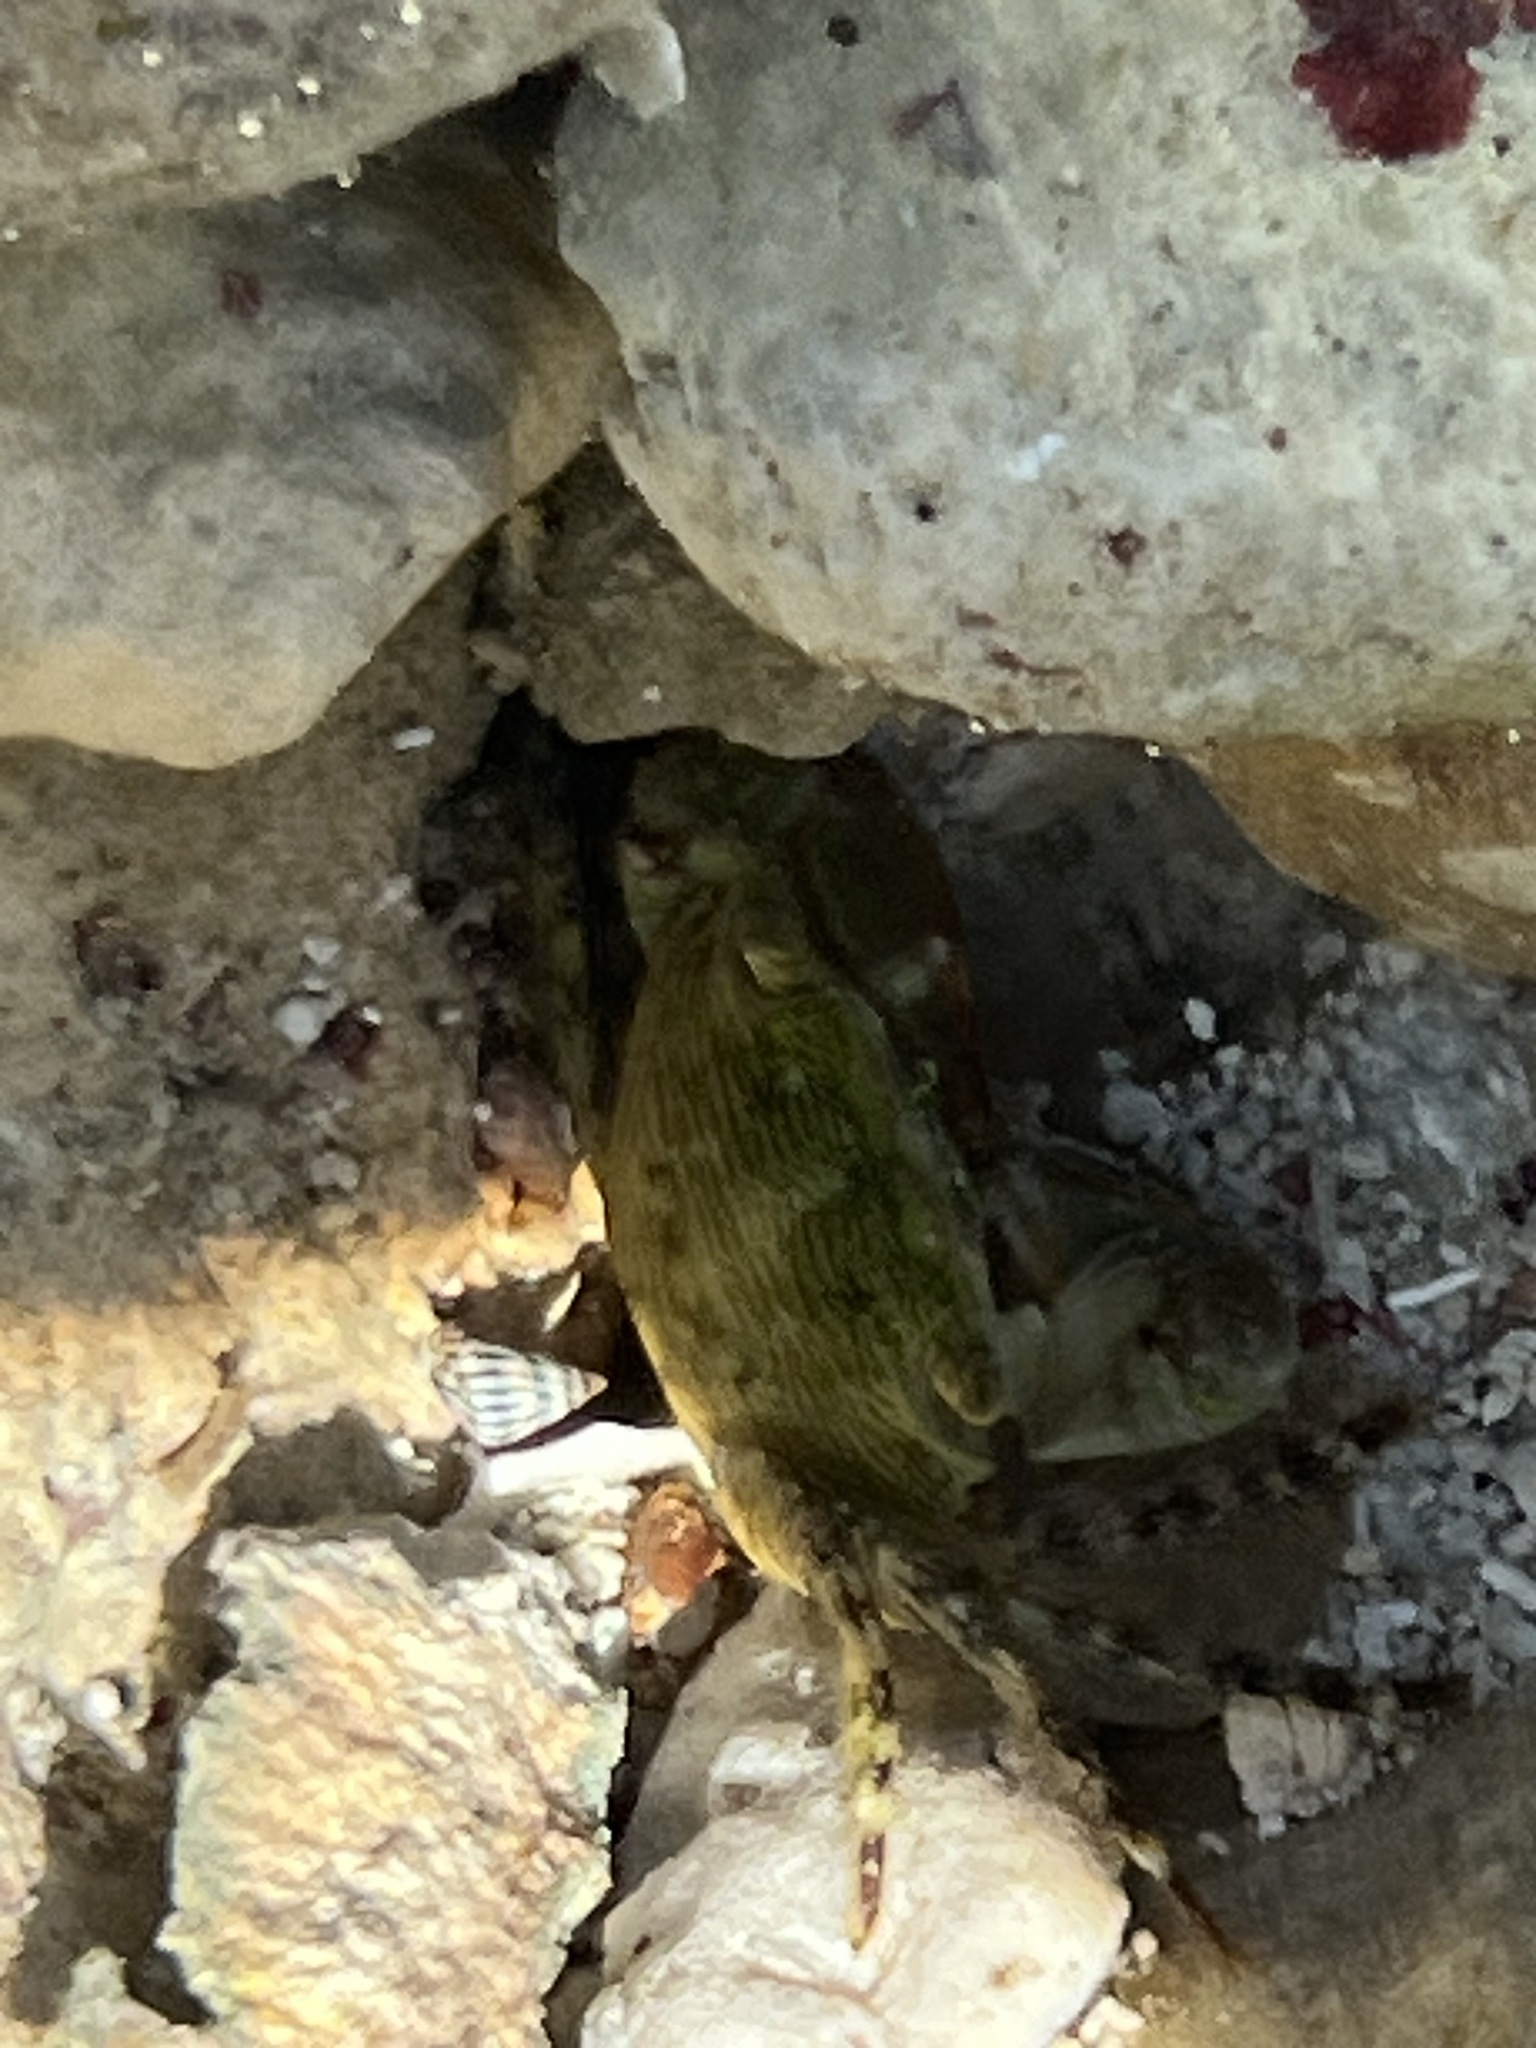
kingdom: Animalia
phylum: Arthropoda
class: Malacostraca
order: Decapoda
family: Grapsidae
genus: Pachygrapsus
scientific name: Pachygrapsus transversus
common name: Mottled shore crab
